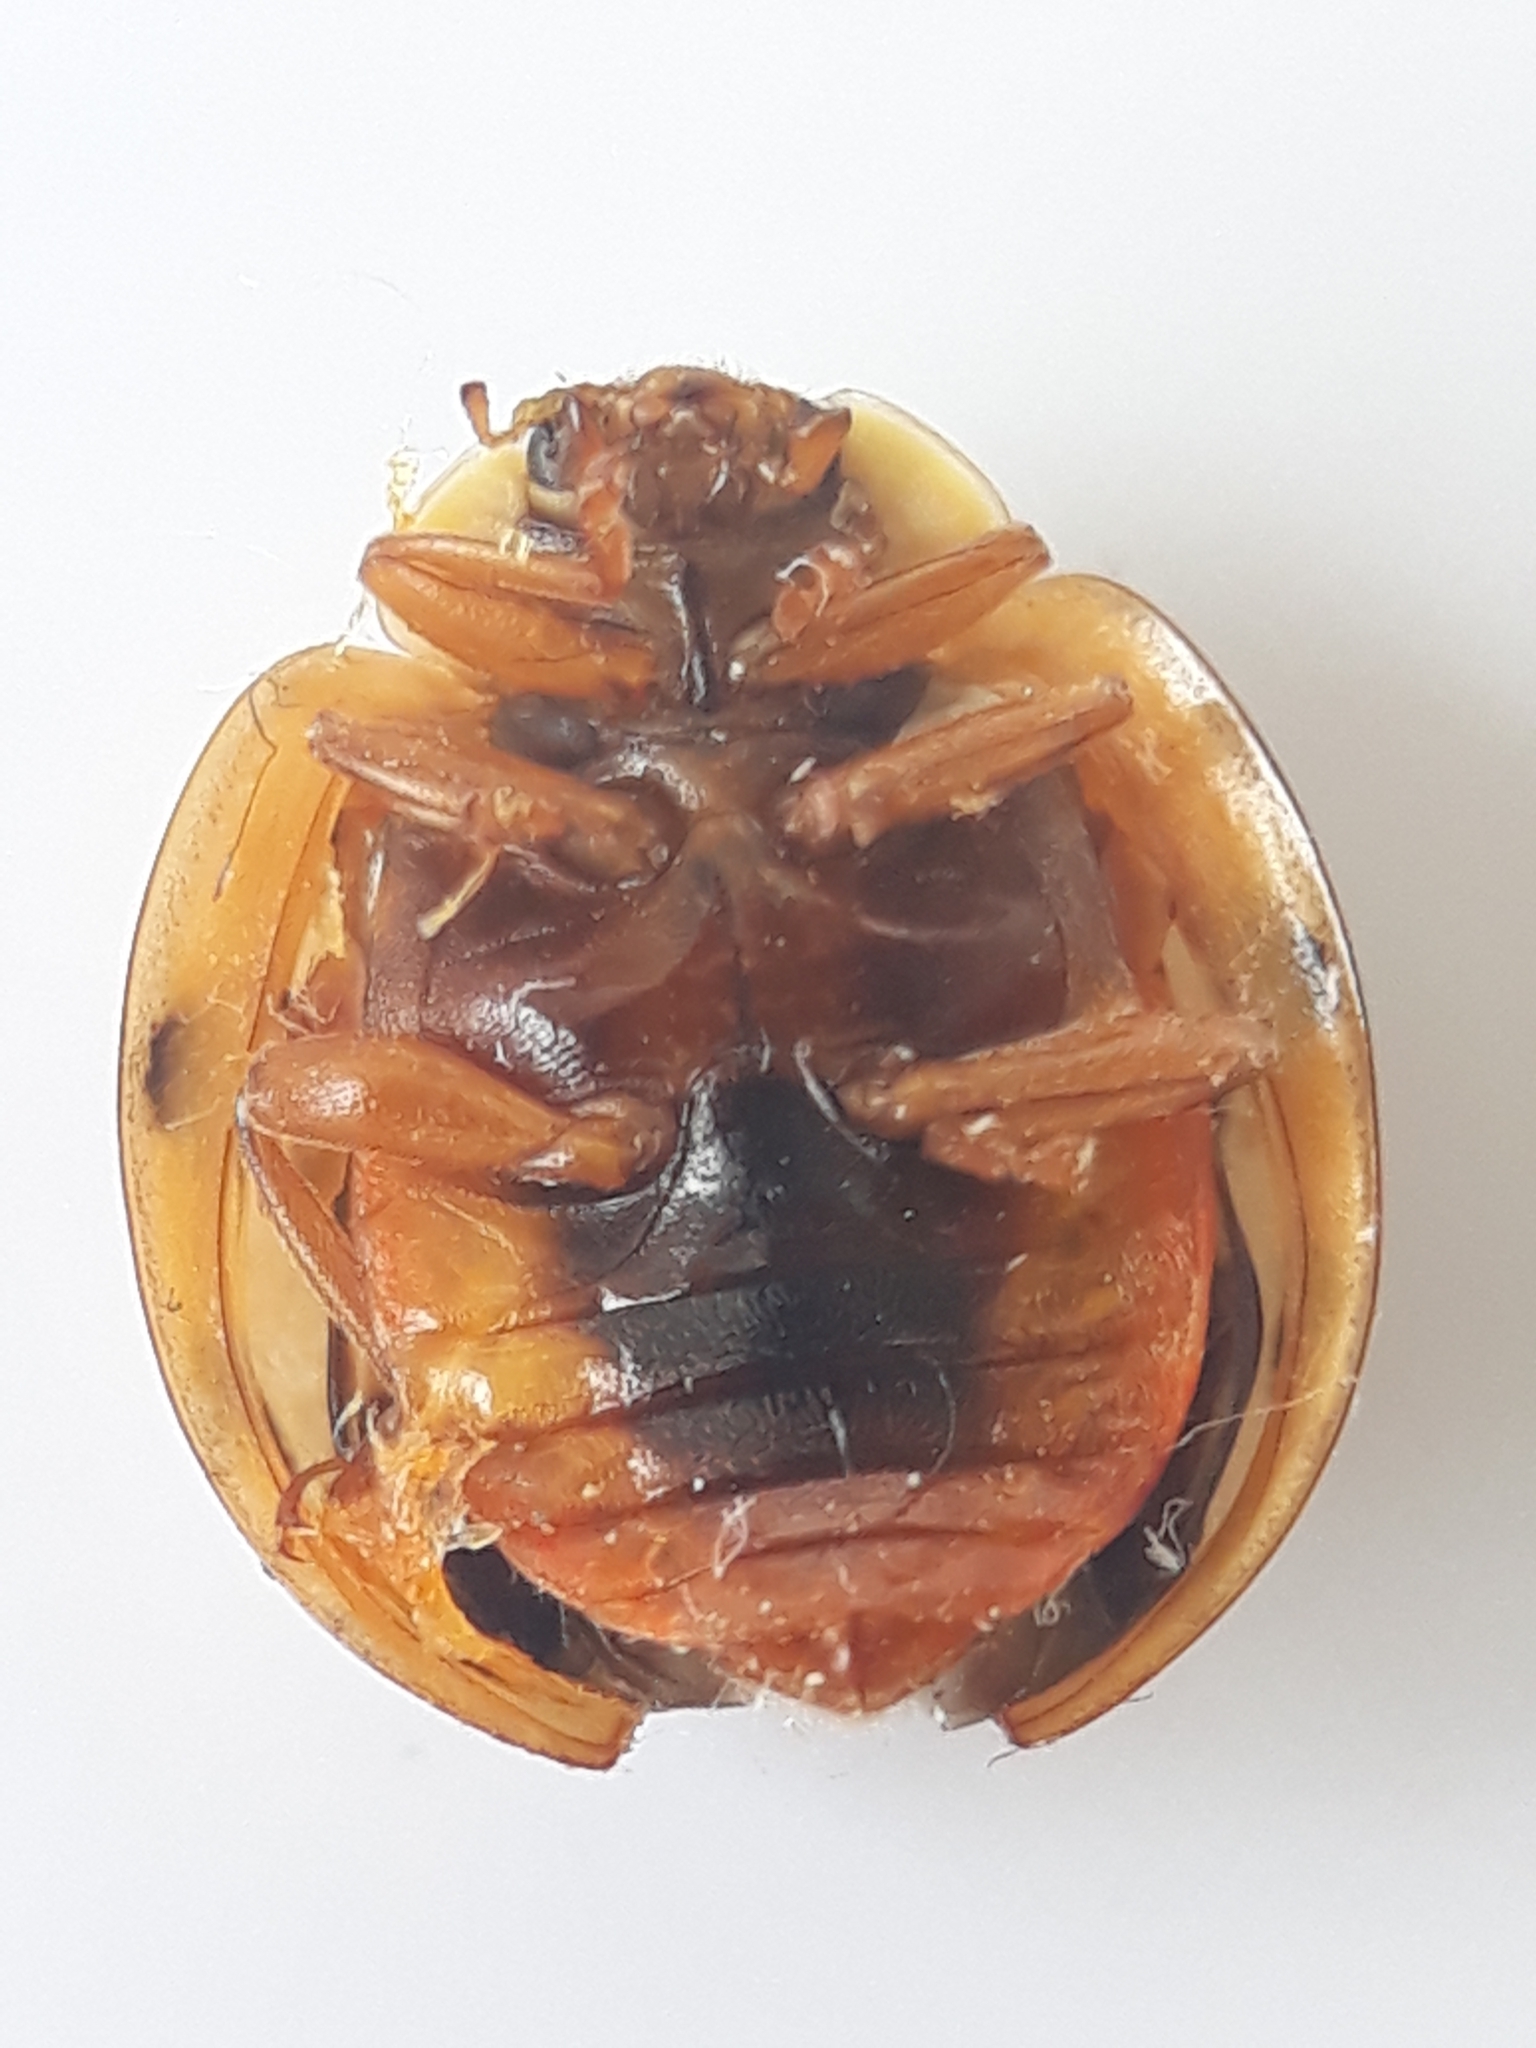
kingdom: Animalia
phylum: Arthropoda
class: Insecta
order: Coleoptera
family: Coccinellidae
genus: Harmonia
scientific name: Harmonia axyridis
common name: Harlequin ladybird
